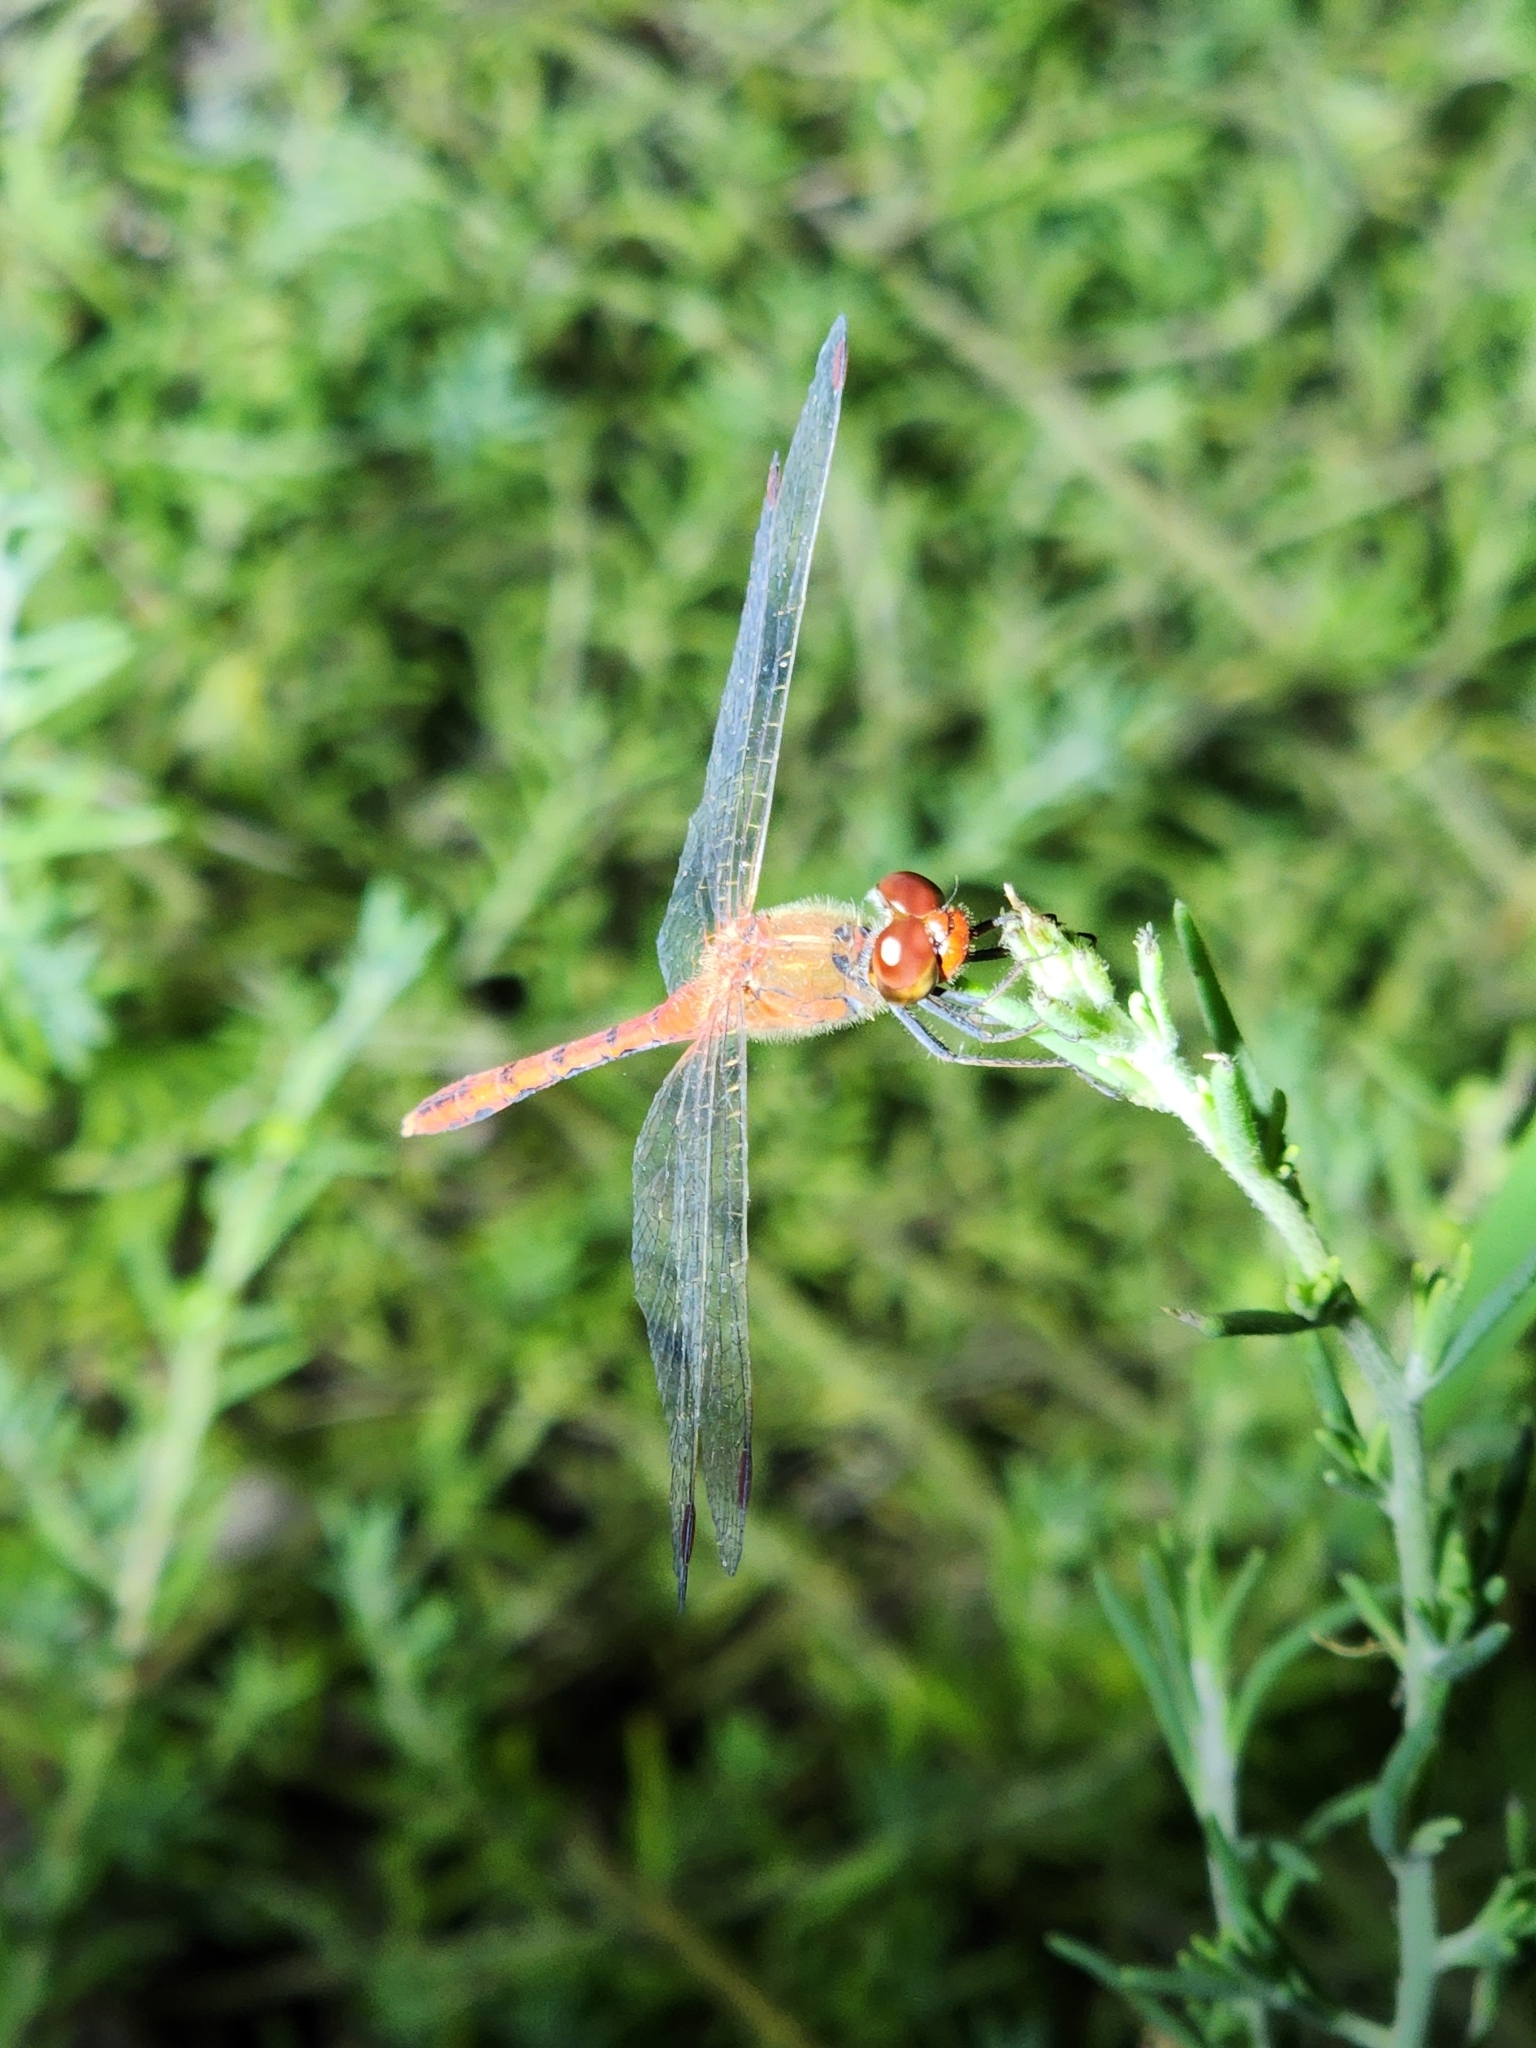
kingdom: Animalia
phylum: Arthropoda
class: Insecta
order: Odonata
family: Libellulidae
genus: Diplacodes
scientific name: Diplacodes bipunctata
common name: Red percher dragonfly
